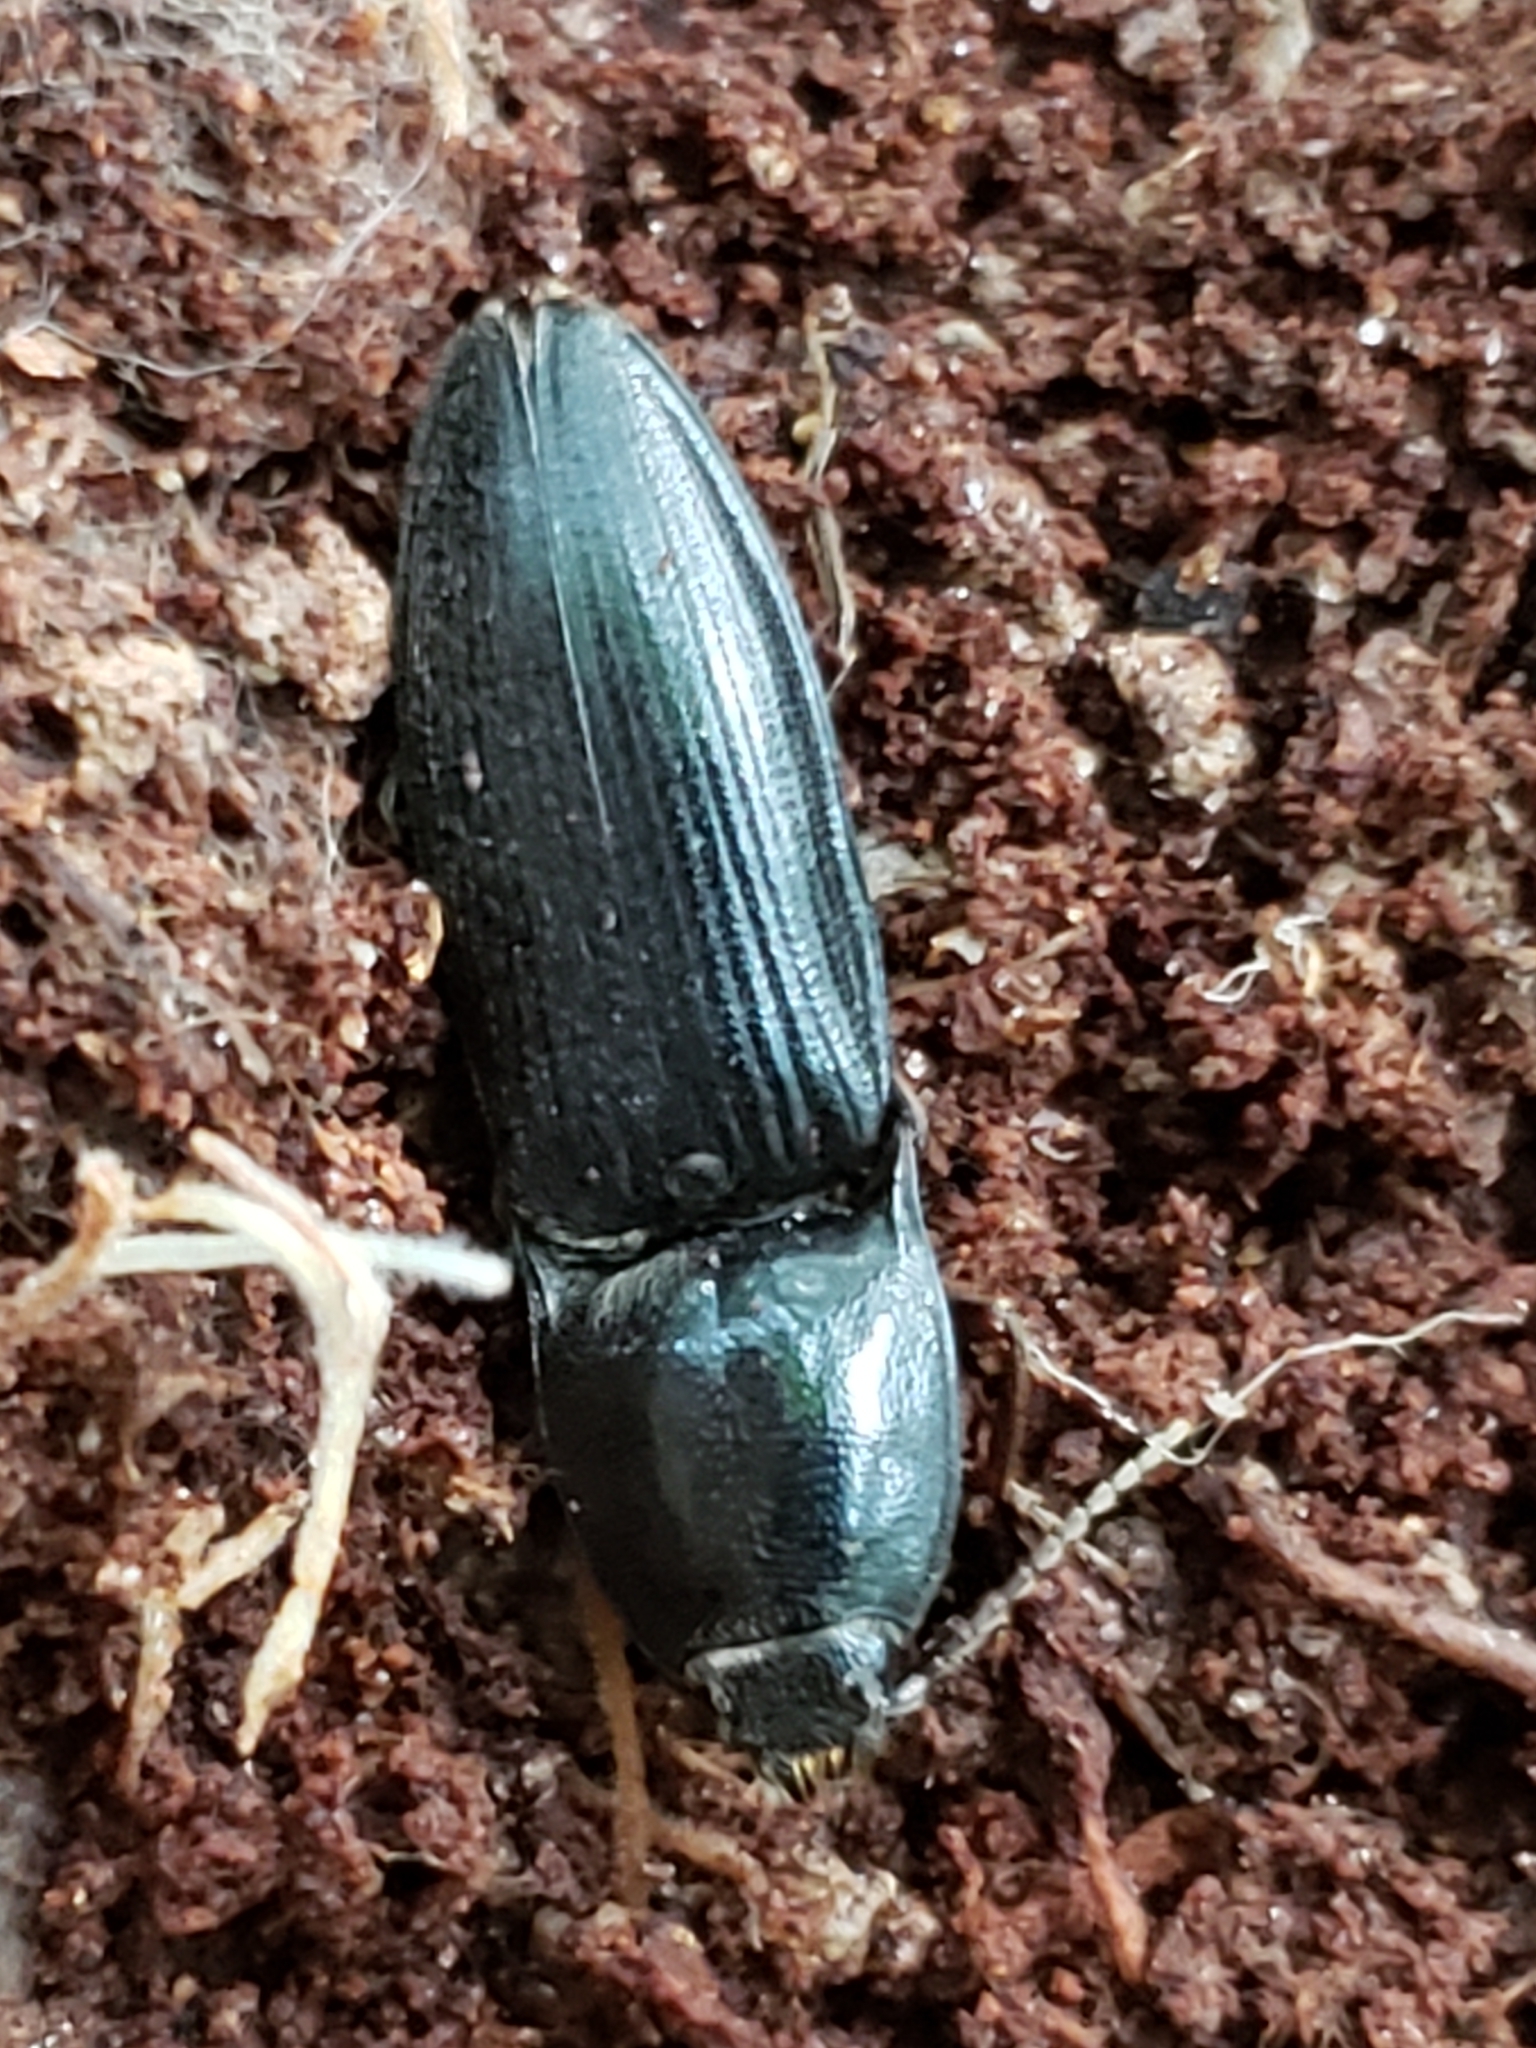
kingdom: Animalia
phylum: Arthropoda
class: Insecta
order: Coleoptera
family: Elateridae
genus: Neopristilophus
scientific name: Neopristilophus
